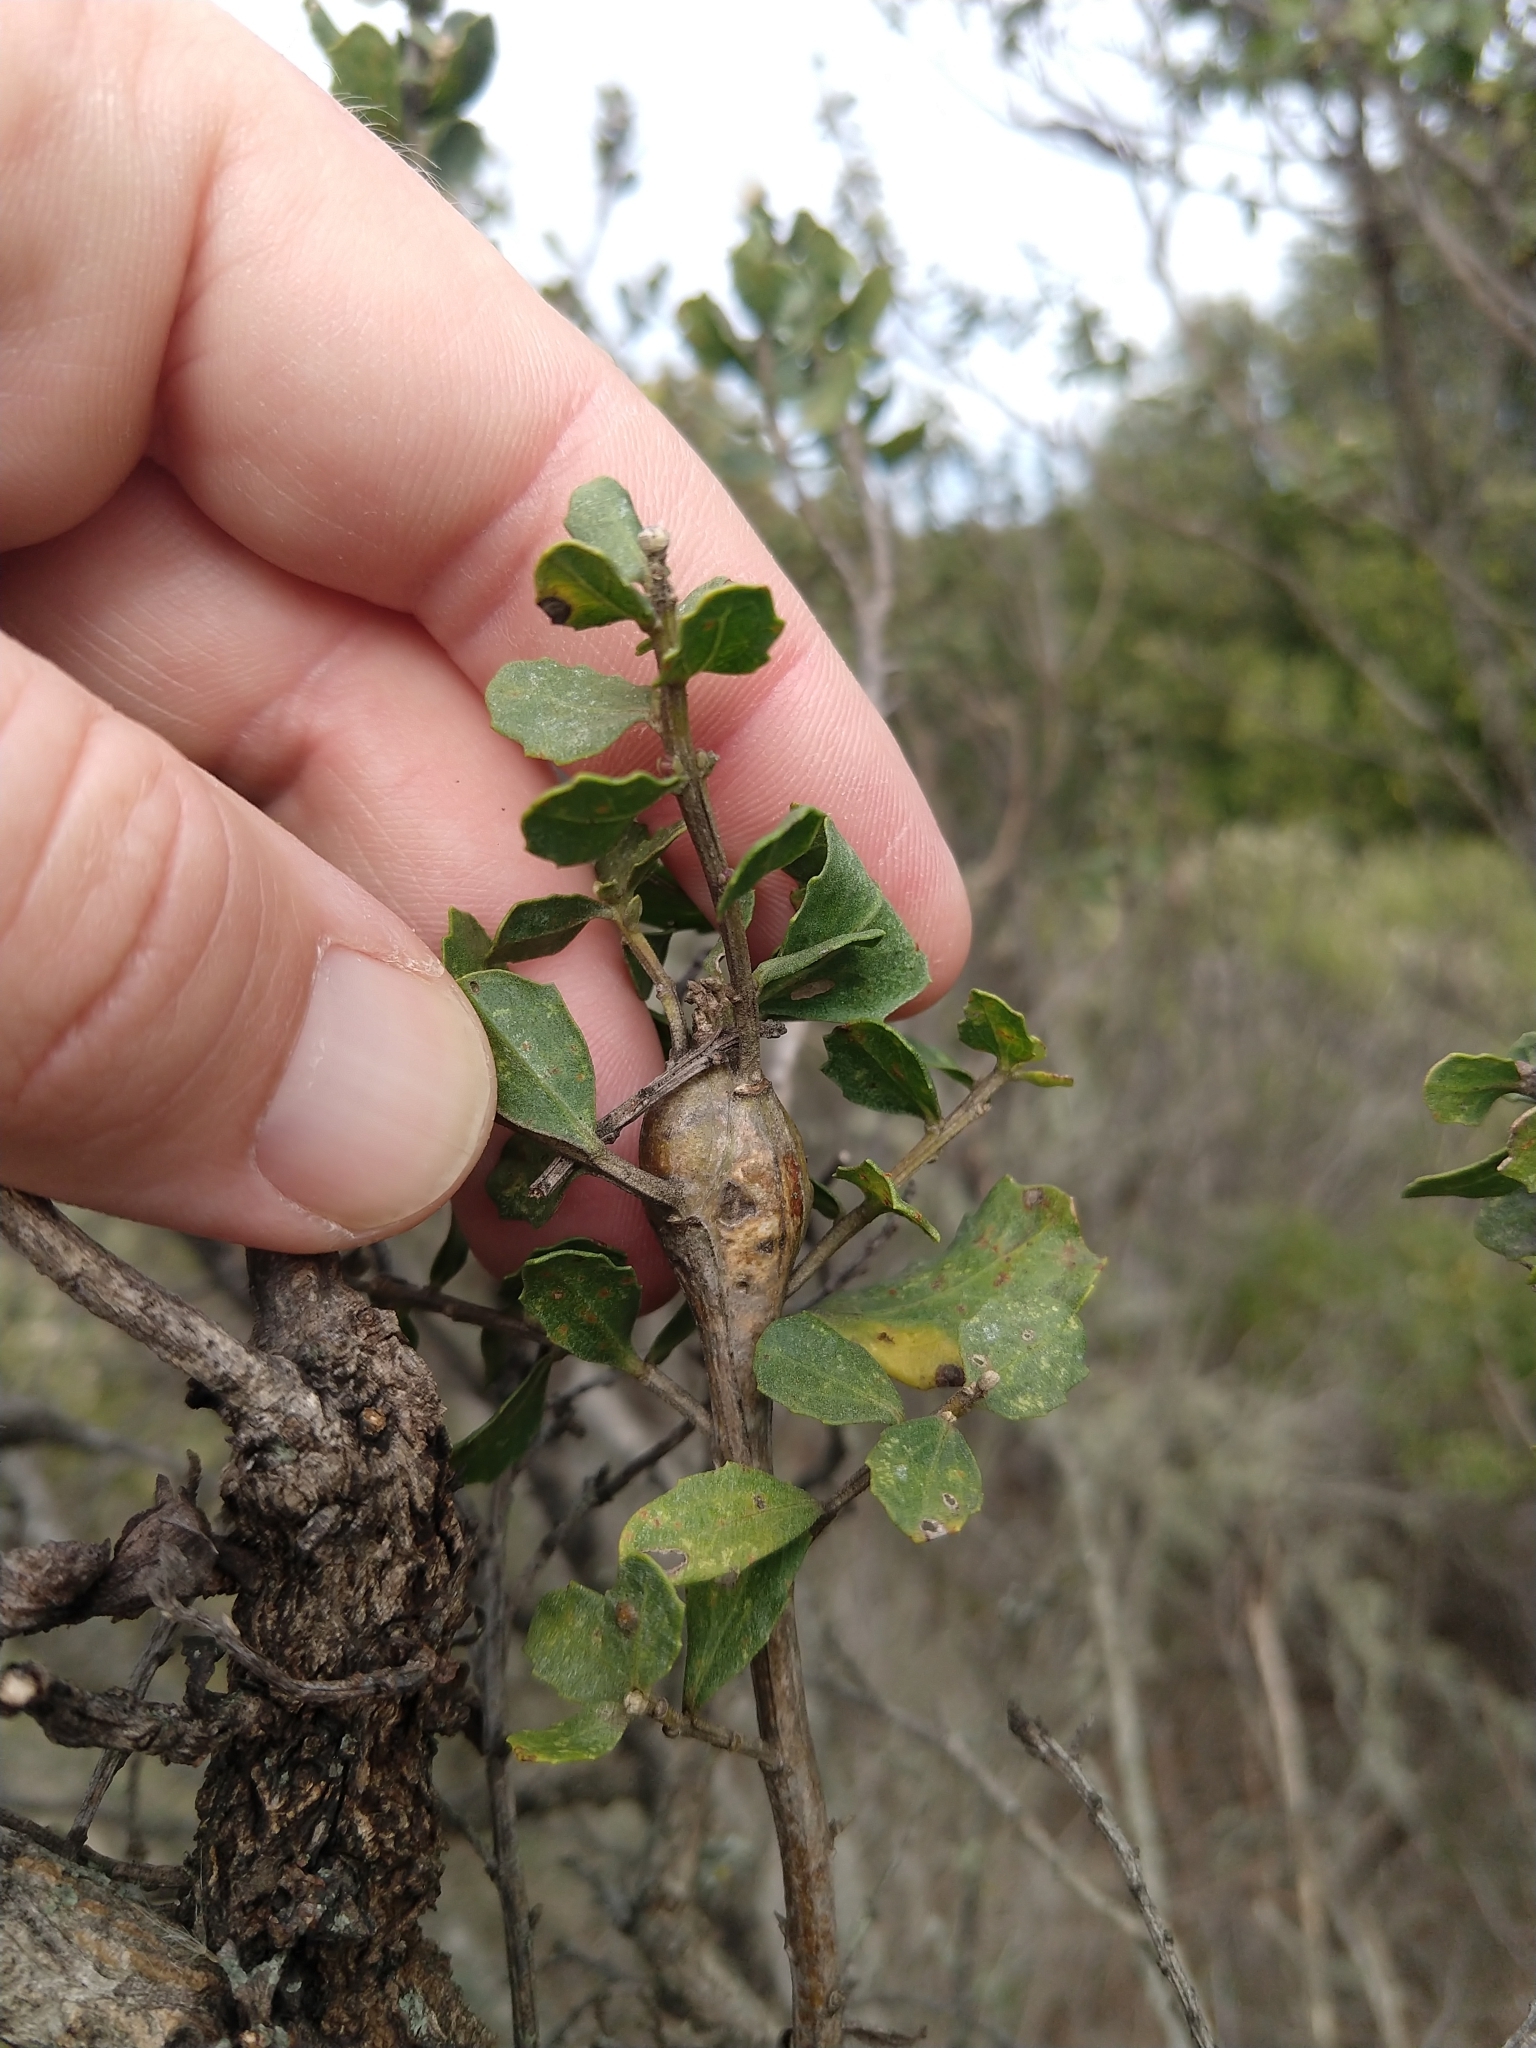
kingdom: Animalia
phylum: Arthropoda
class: Insecta
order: Lepidoptera
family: Gelechiidae
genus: Gnorimoschema
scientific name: Gnorimoschema baccharisella
